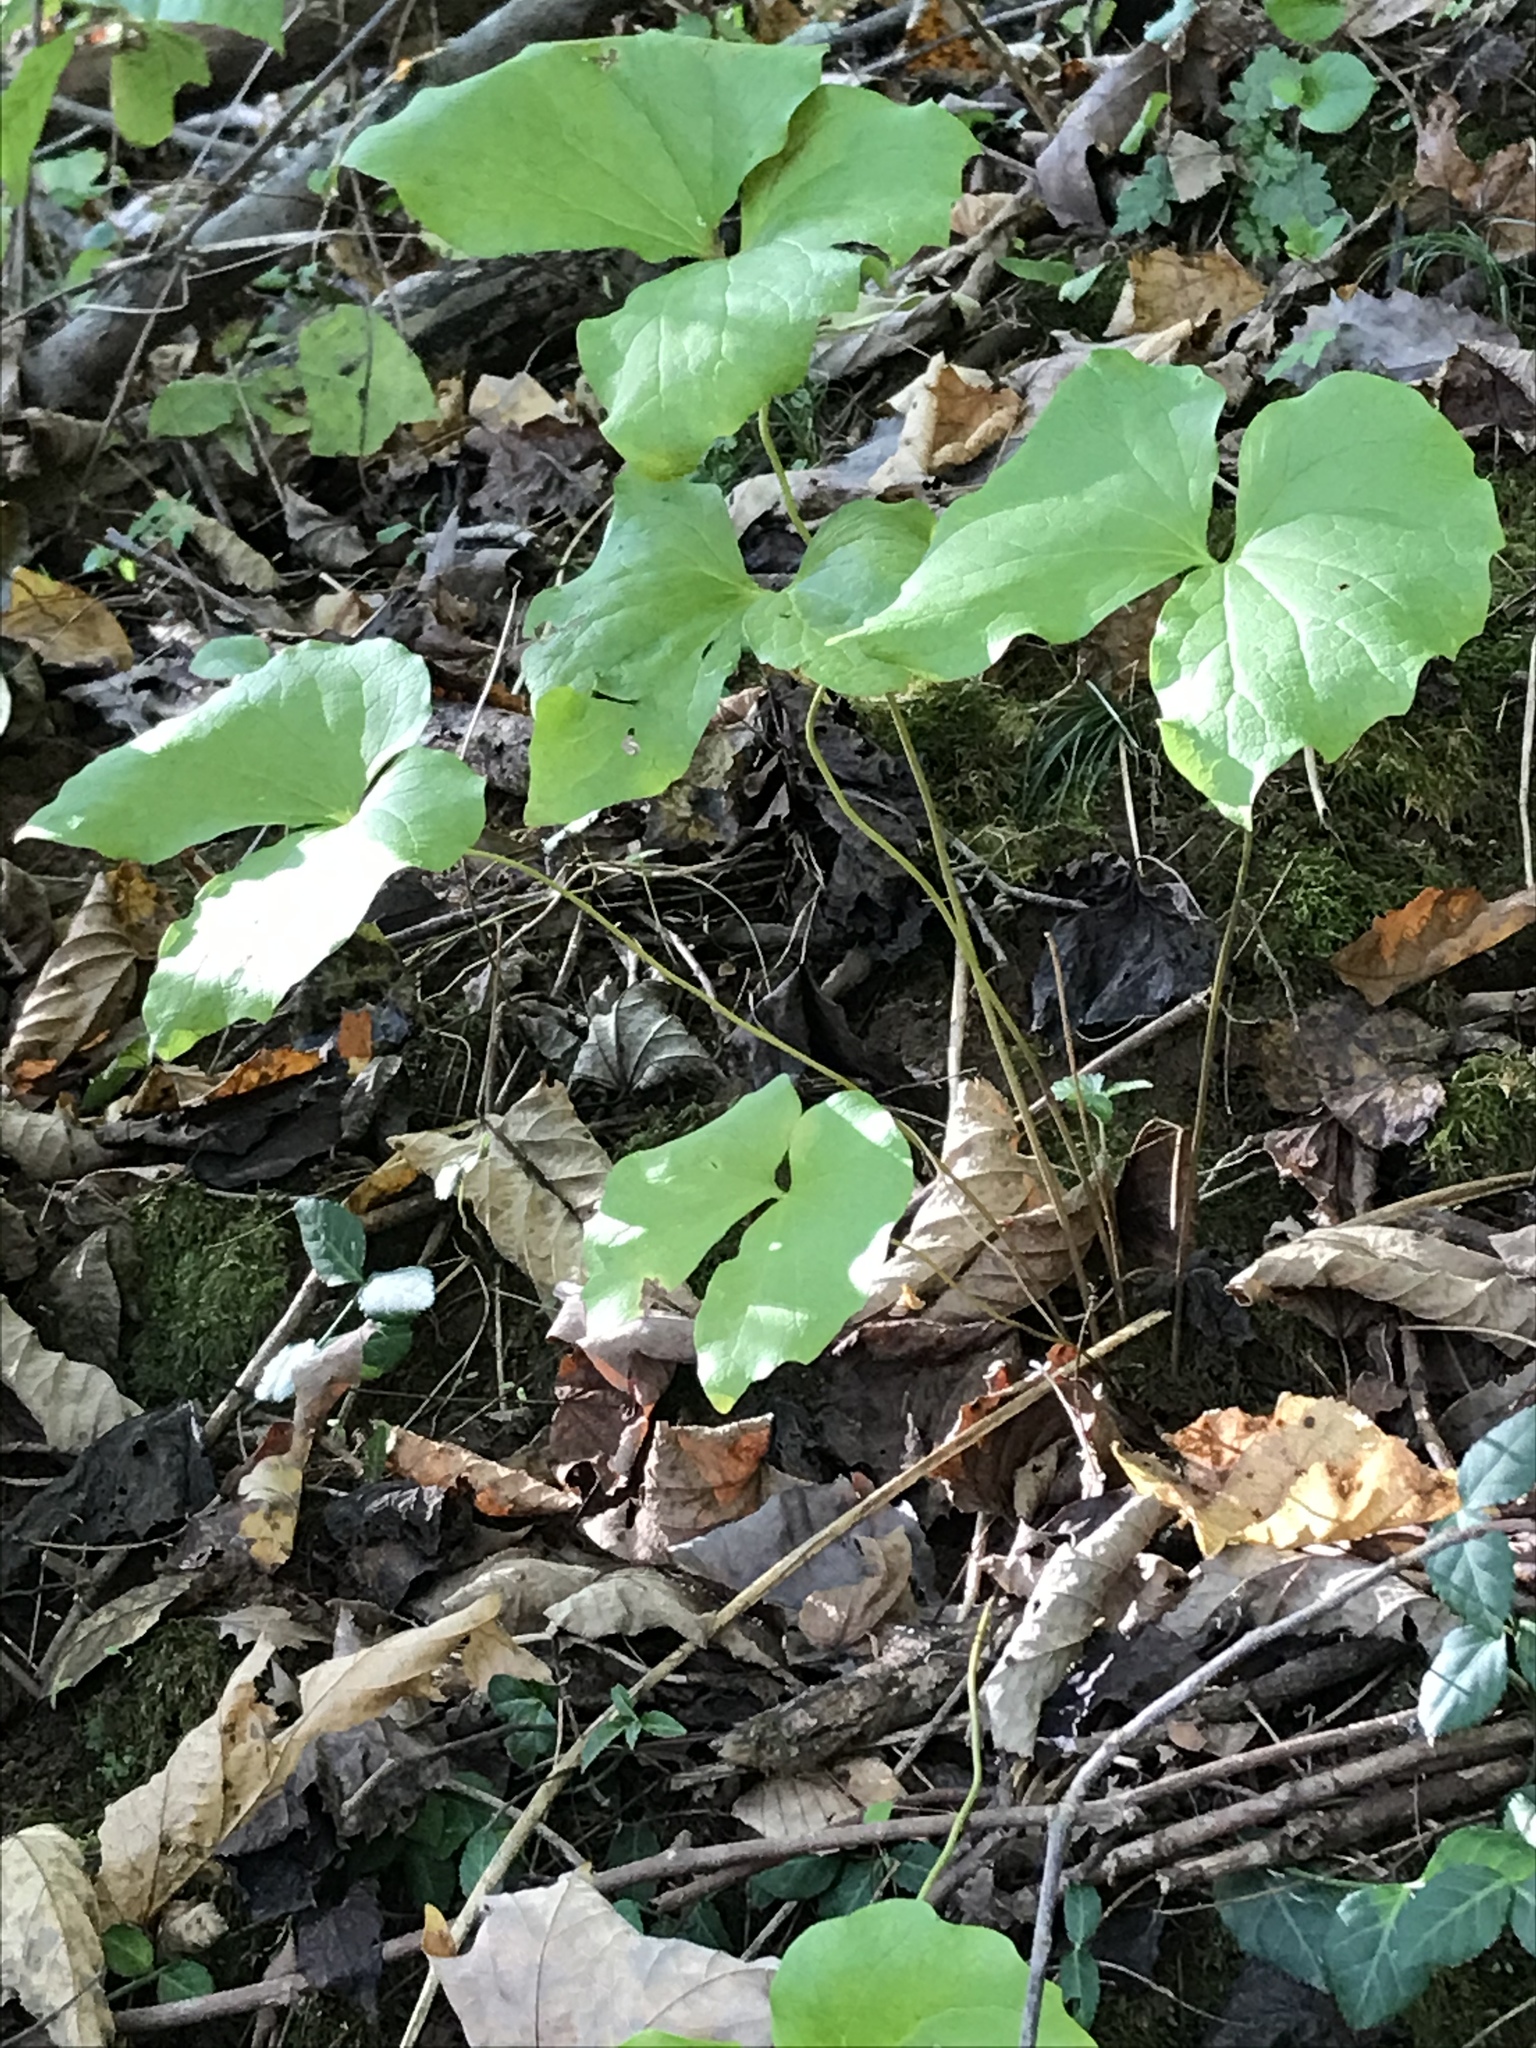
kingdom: Plantae
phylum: Tracheophyta
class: Magnoliopsida
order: Ranunculales
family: Berberidaceae
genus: Jeffersonia
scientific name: Jeffersonia diphylla
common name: Rheumatism-root
